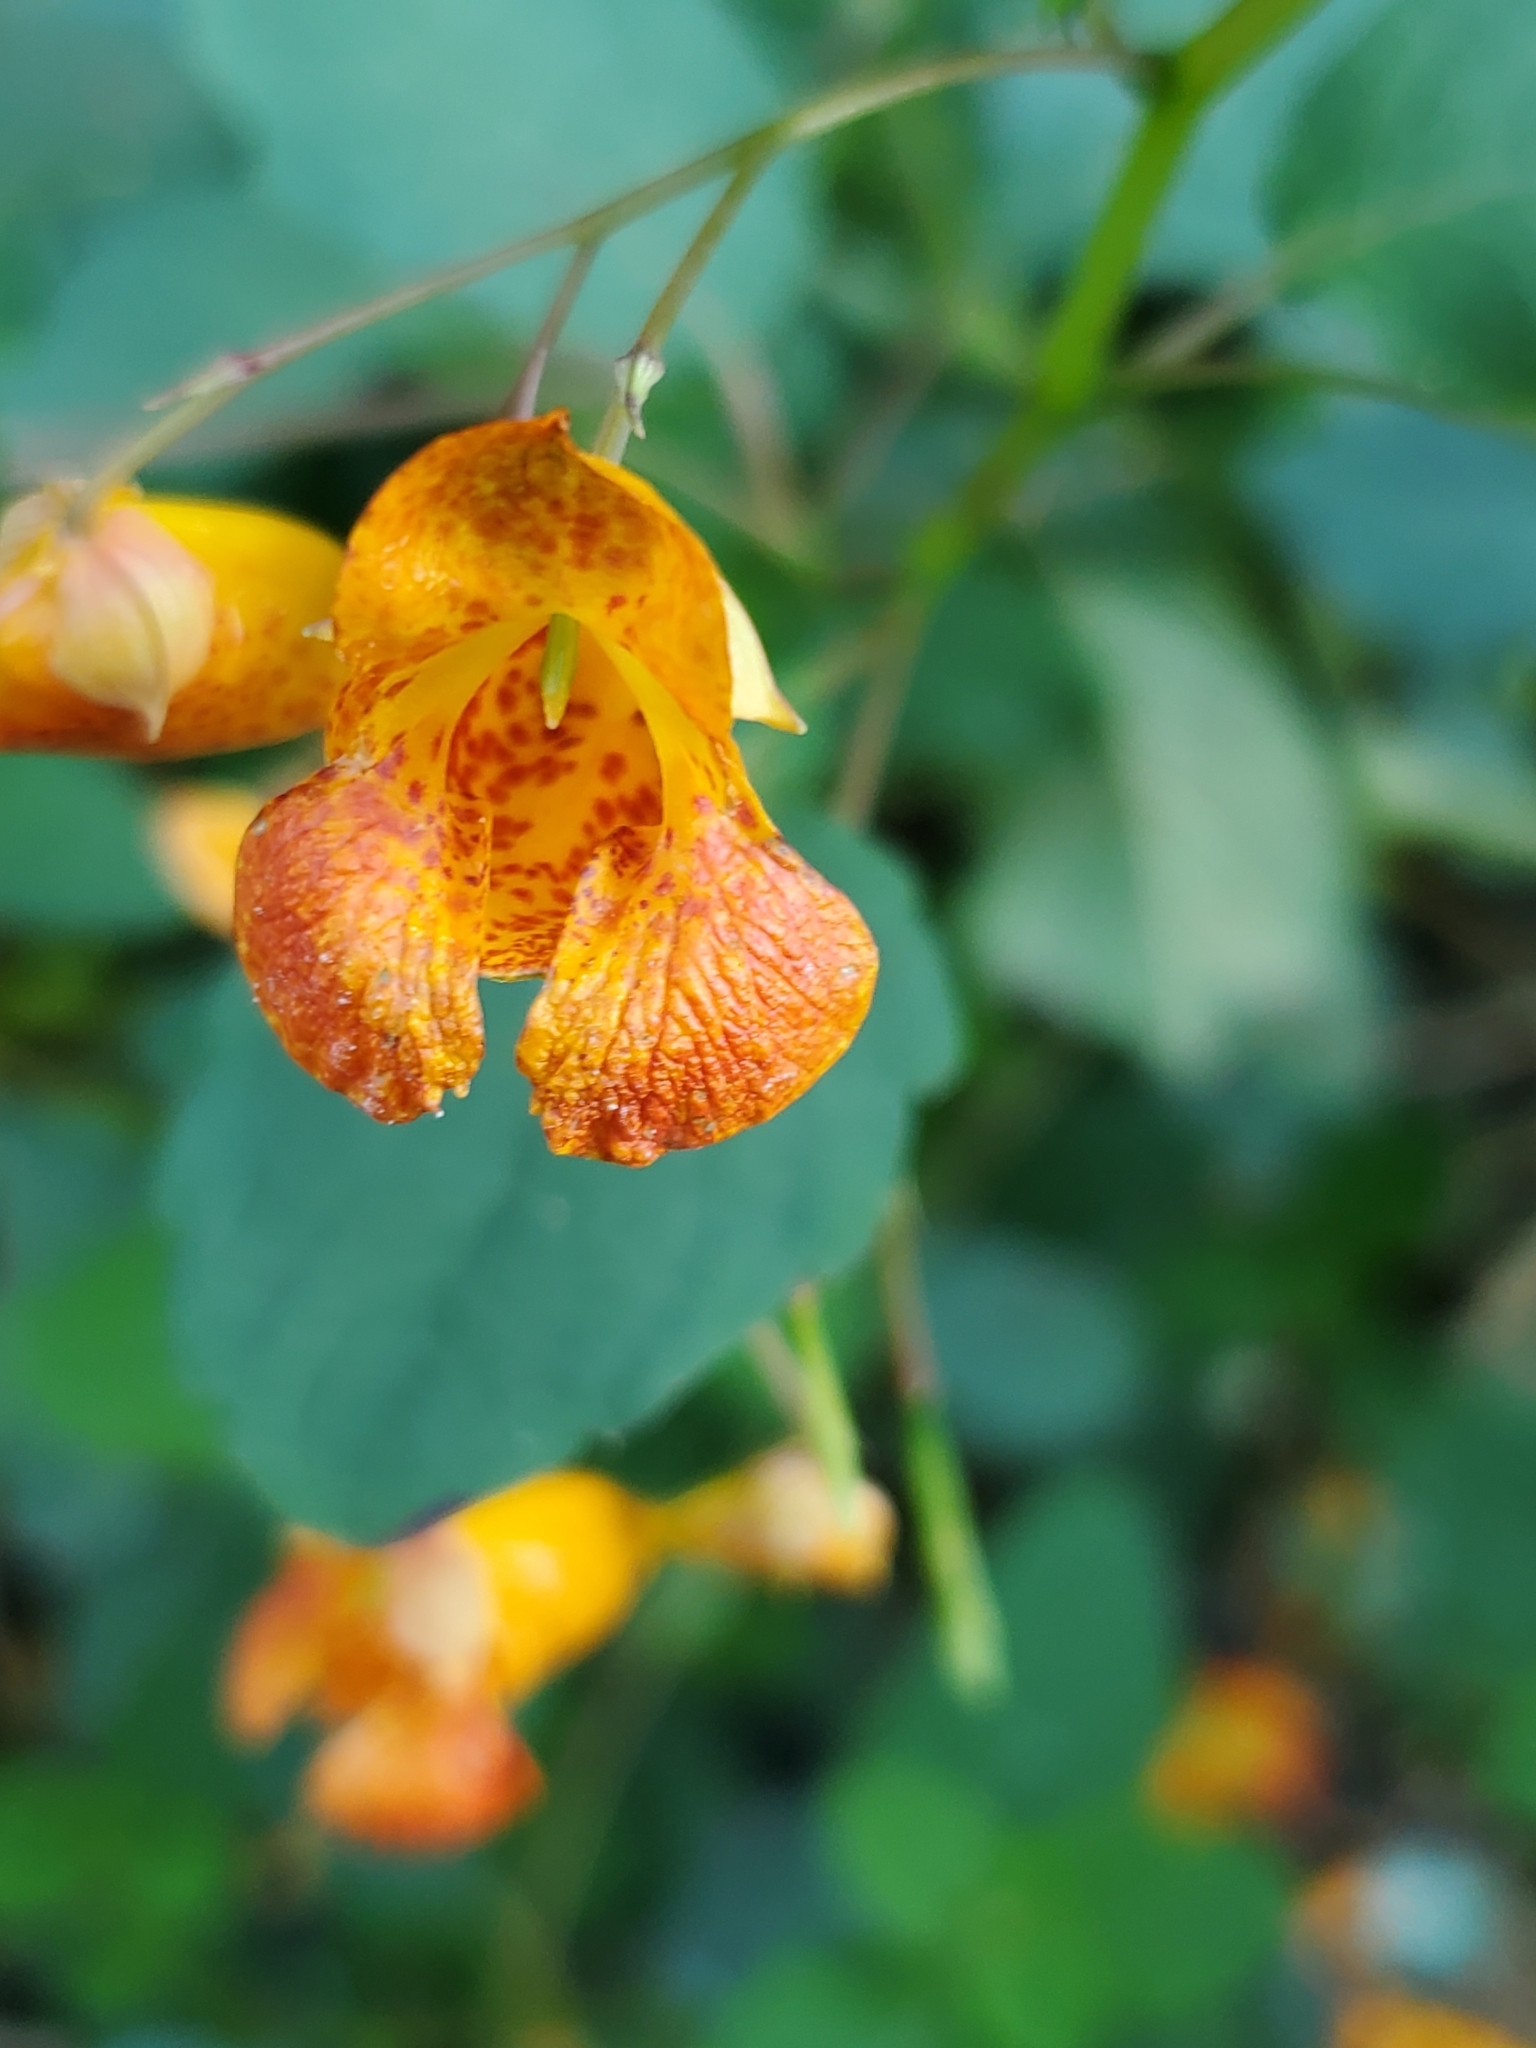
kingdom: Plantae
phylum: Tracheophyta
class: Magnoliopsida
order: Ericales
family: Balsaminaceae
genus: Impatiens
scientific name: Impatiens capensis
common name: Orange balsam
